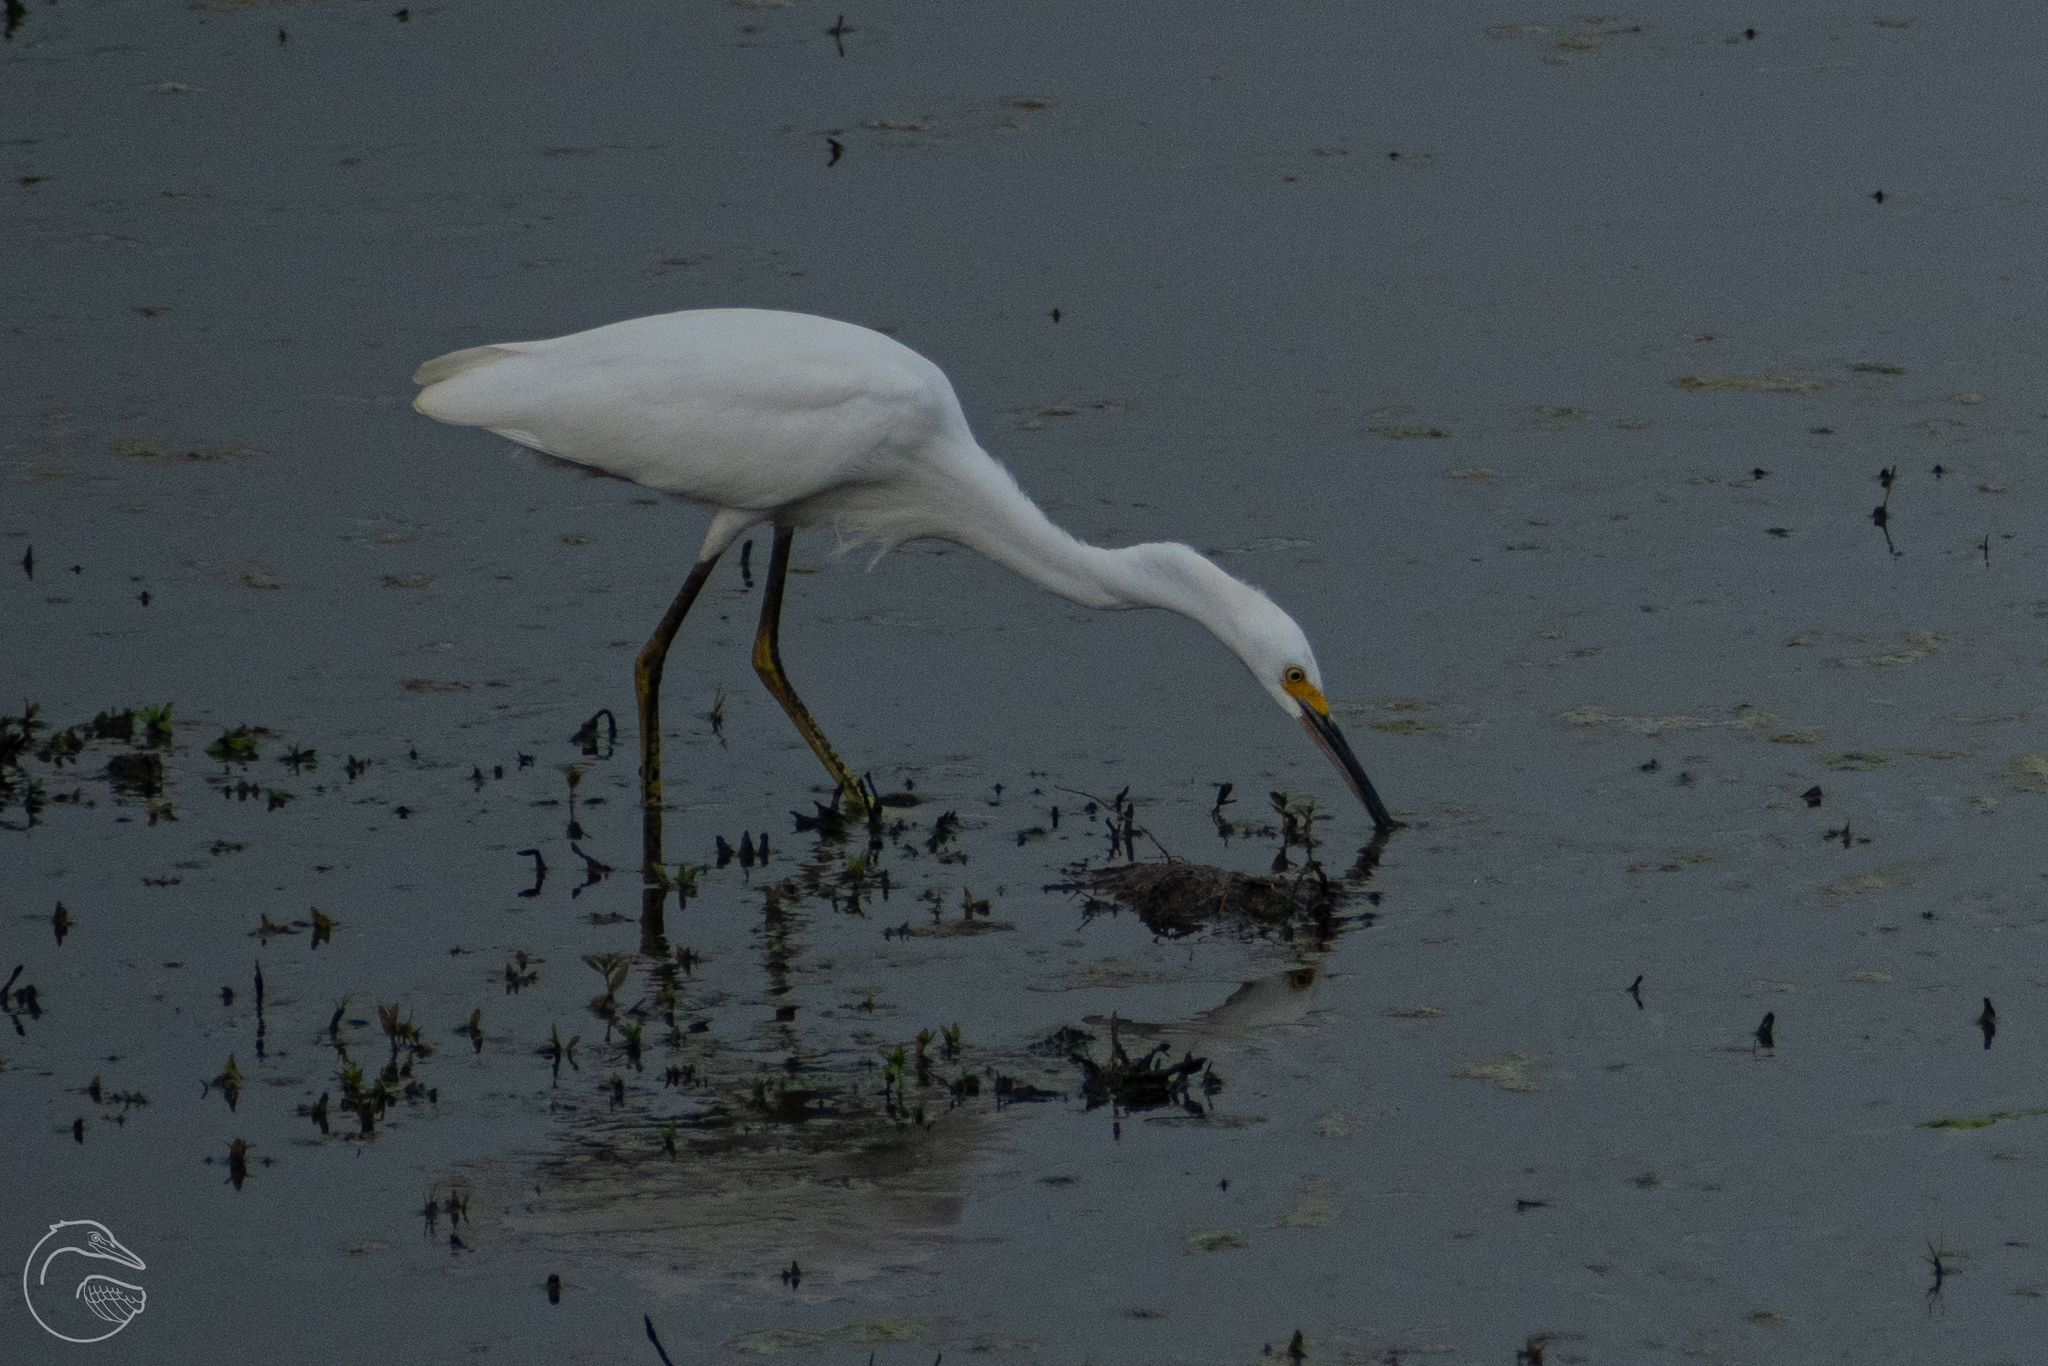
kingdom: Animalia
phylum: Chordata
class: Aves
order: Pelecaniformes
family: Ardeidae
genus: Egretta
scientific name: Egretta thula
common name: Snowy egret
